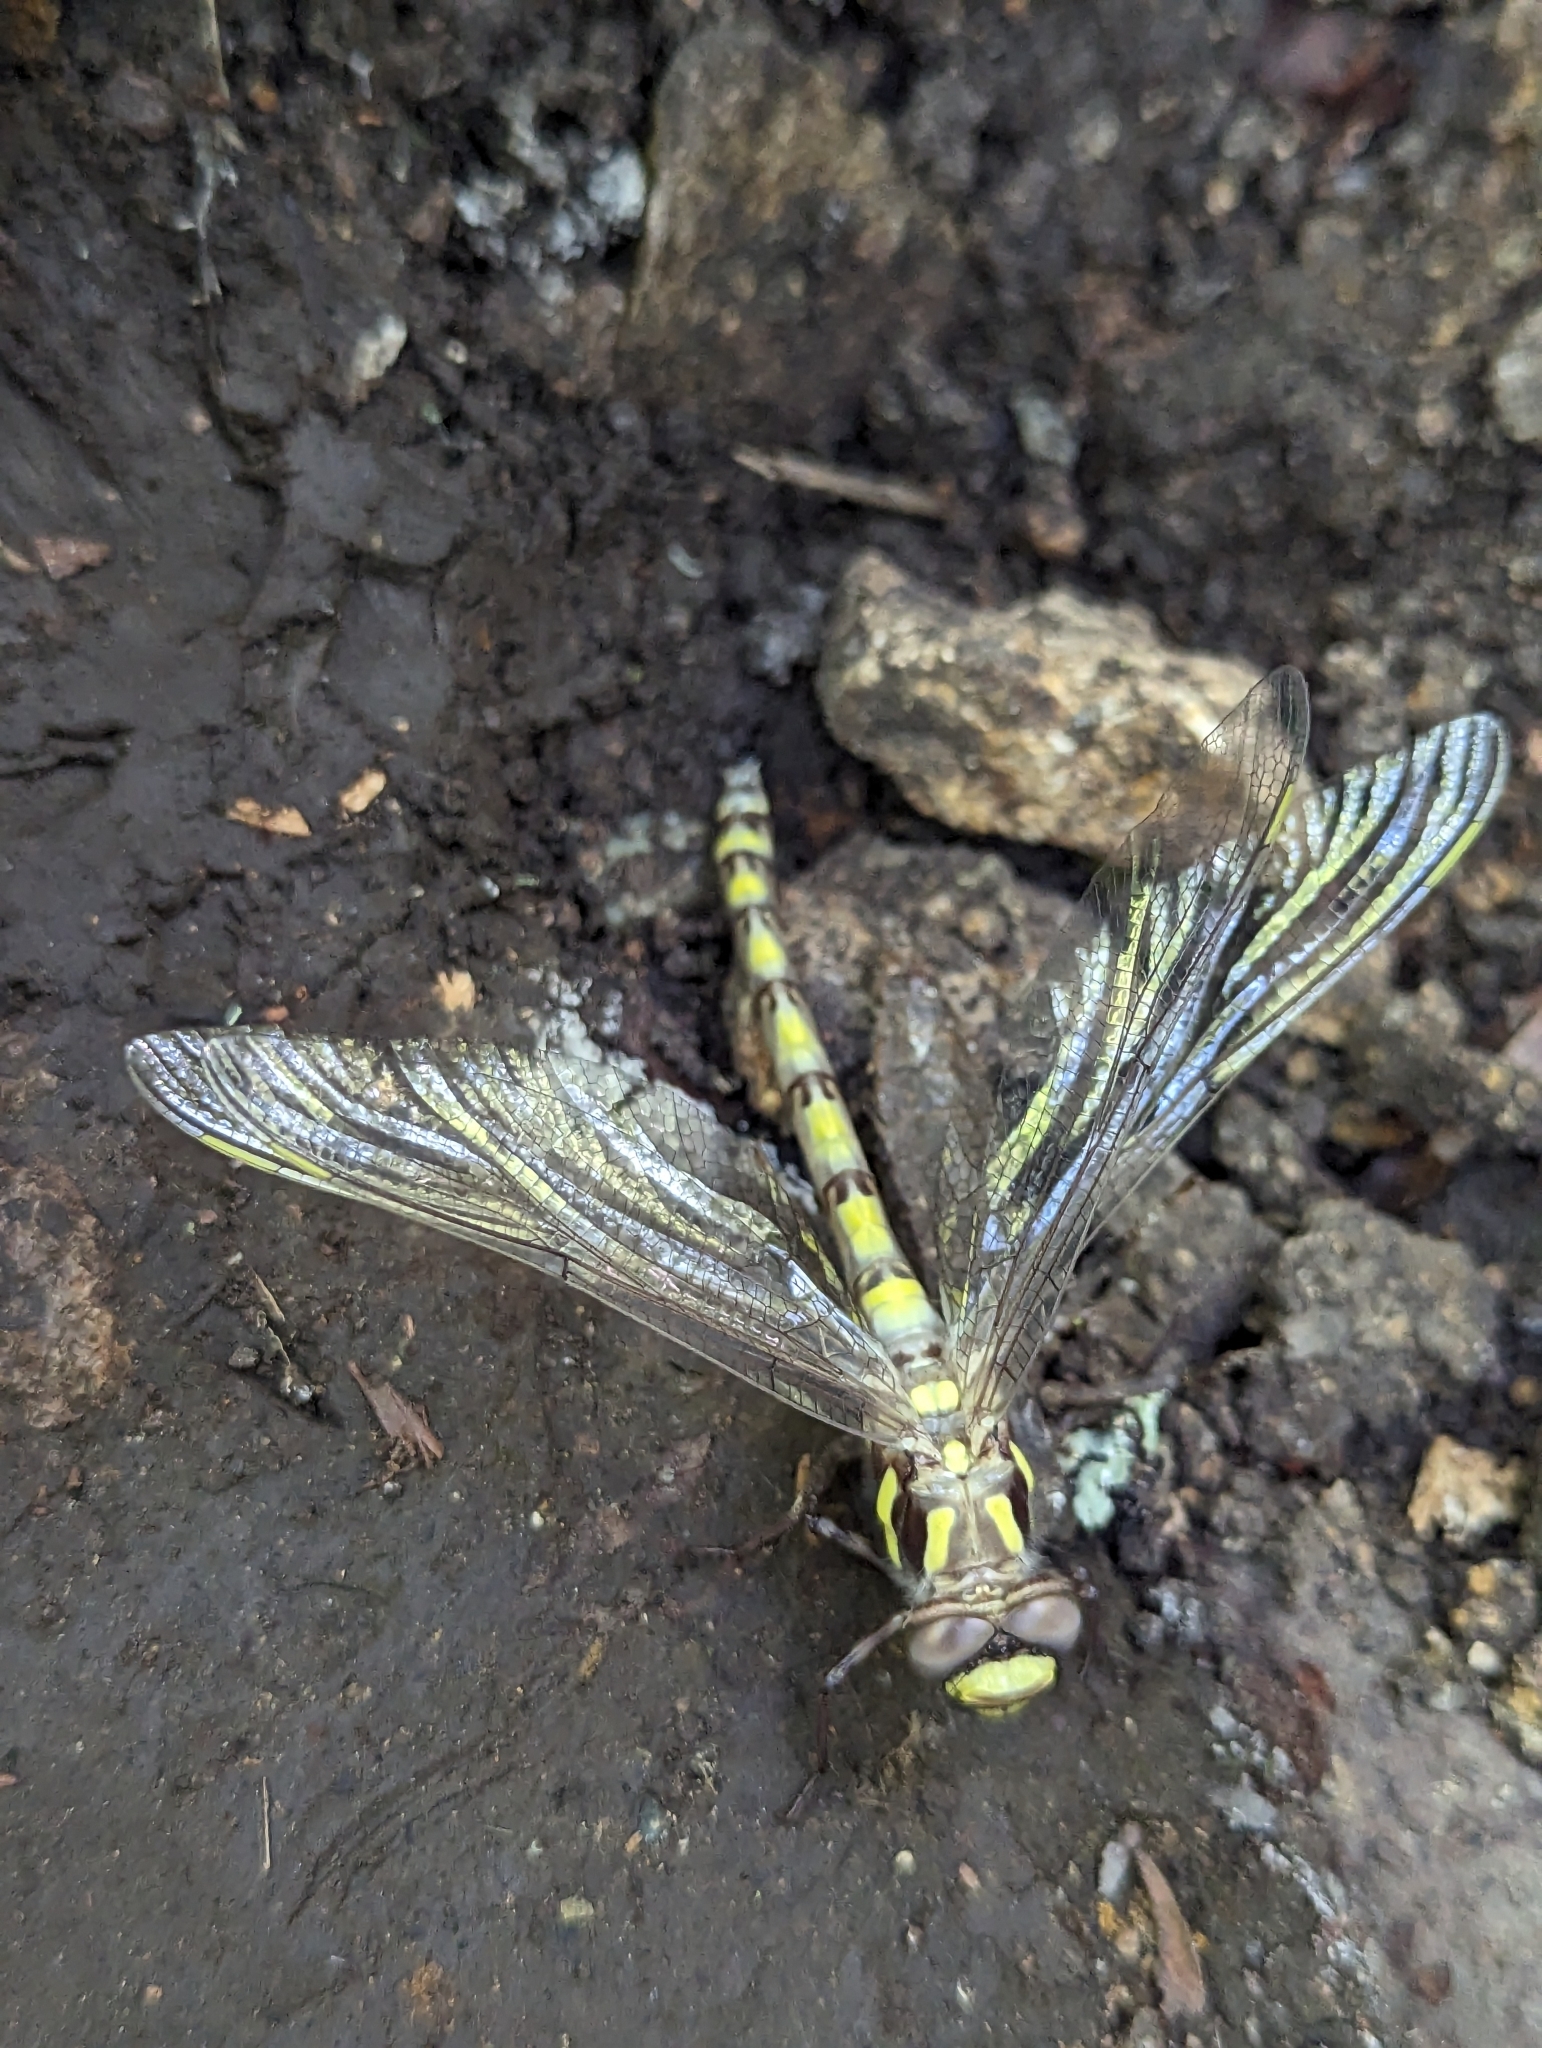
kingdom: Animalia
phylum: Arthropoda
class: Insecta
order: Odonata
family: Cordulegastridae
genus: Cordulegaster
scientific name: Cordulegaster dorsalis
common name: Pacific spiketail
